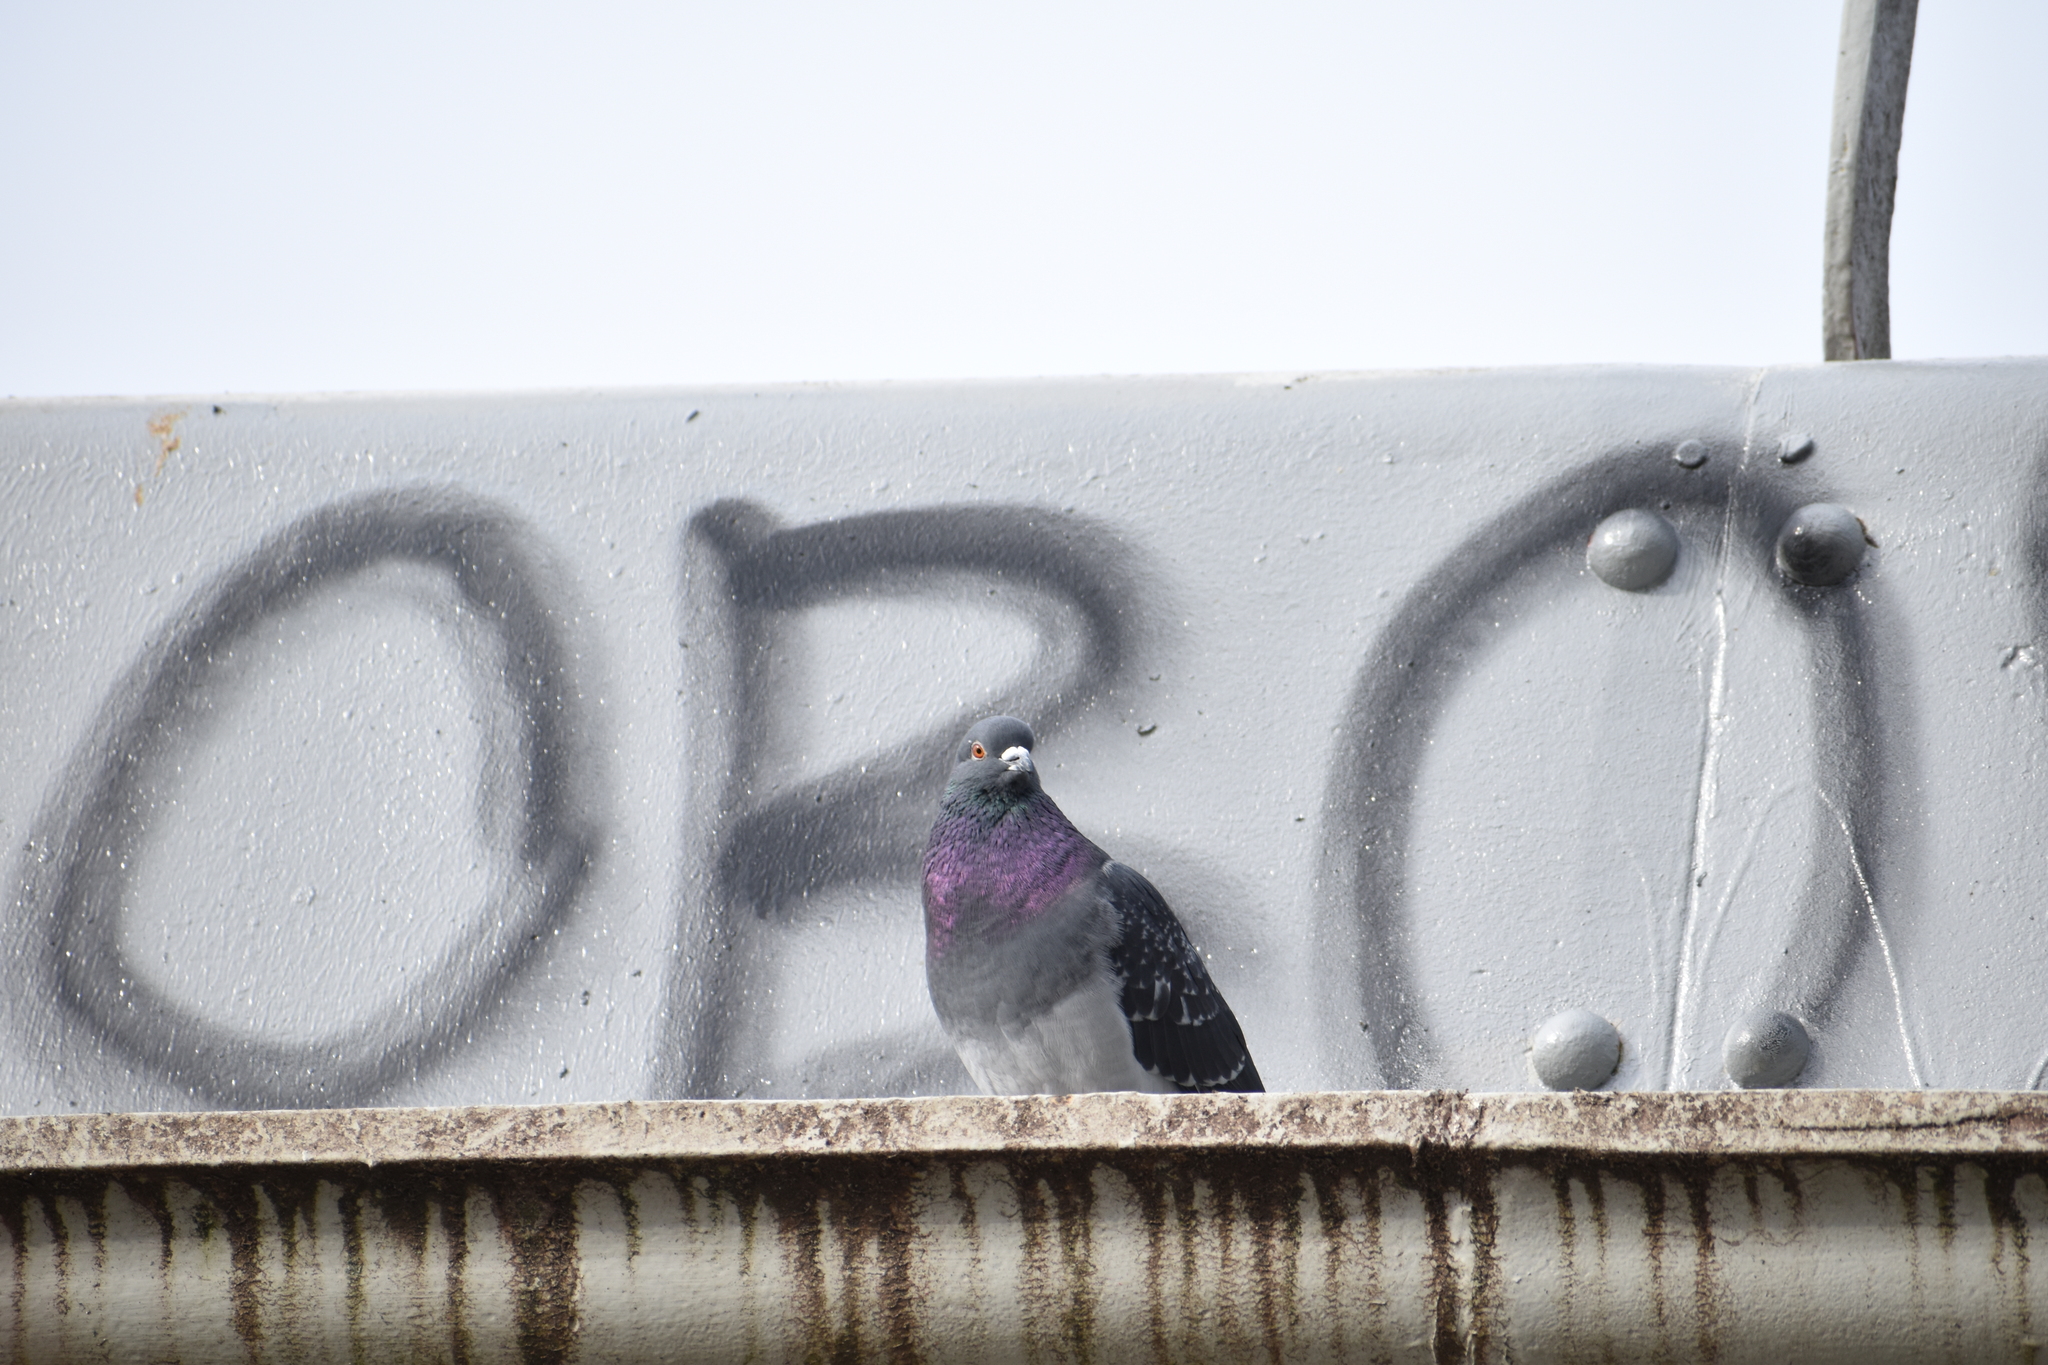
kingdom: Animalia
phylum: Chordata
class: Aves
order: Columbiformes
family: Columbidae
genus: Columba
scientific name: Columba livia
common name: Rock pigeon
